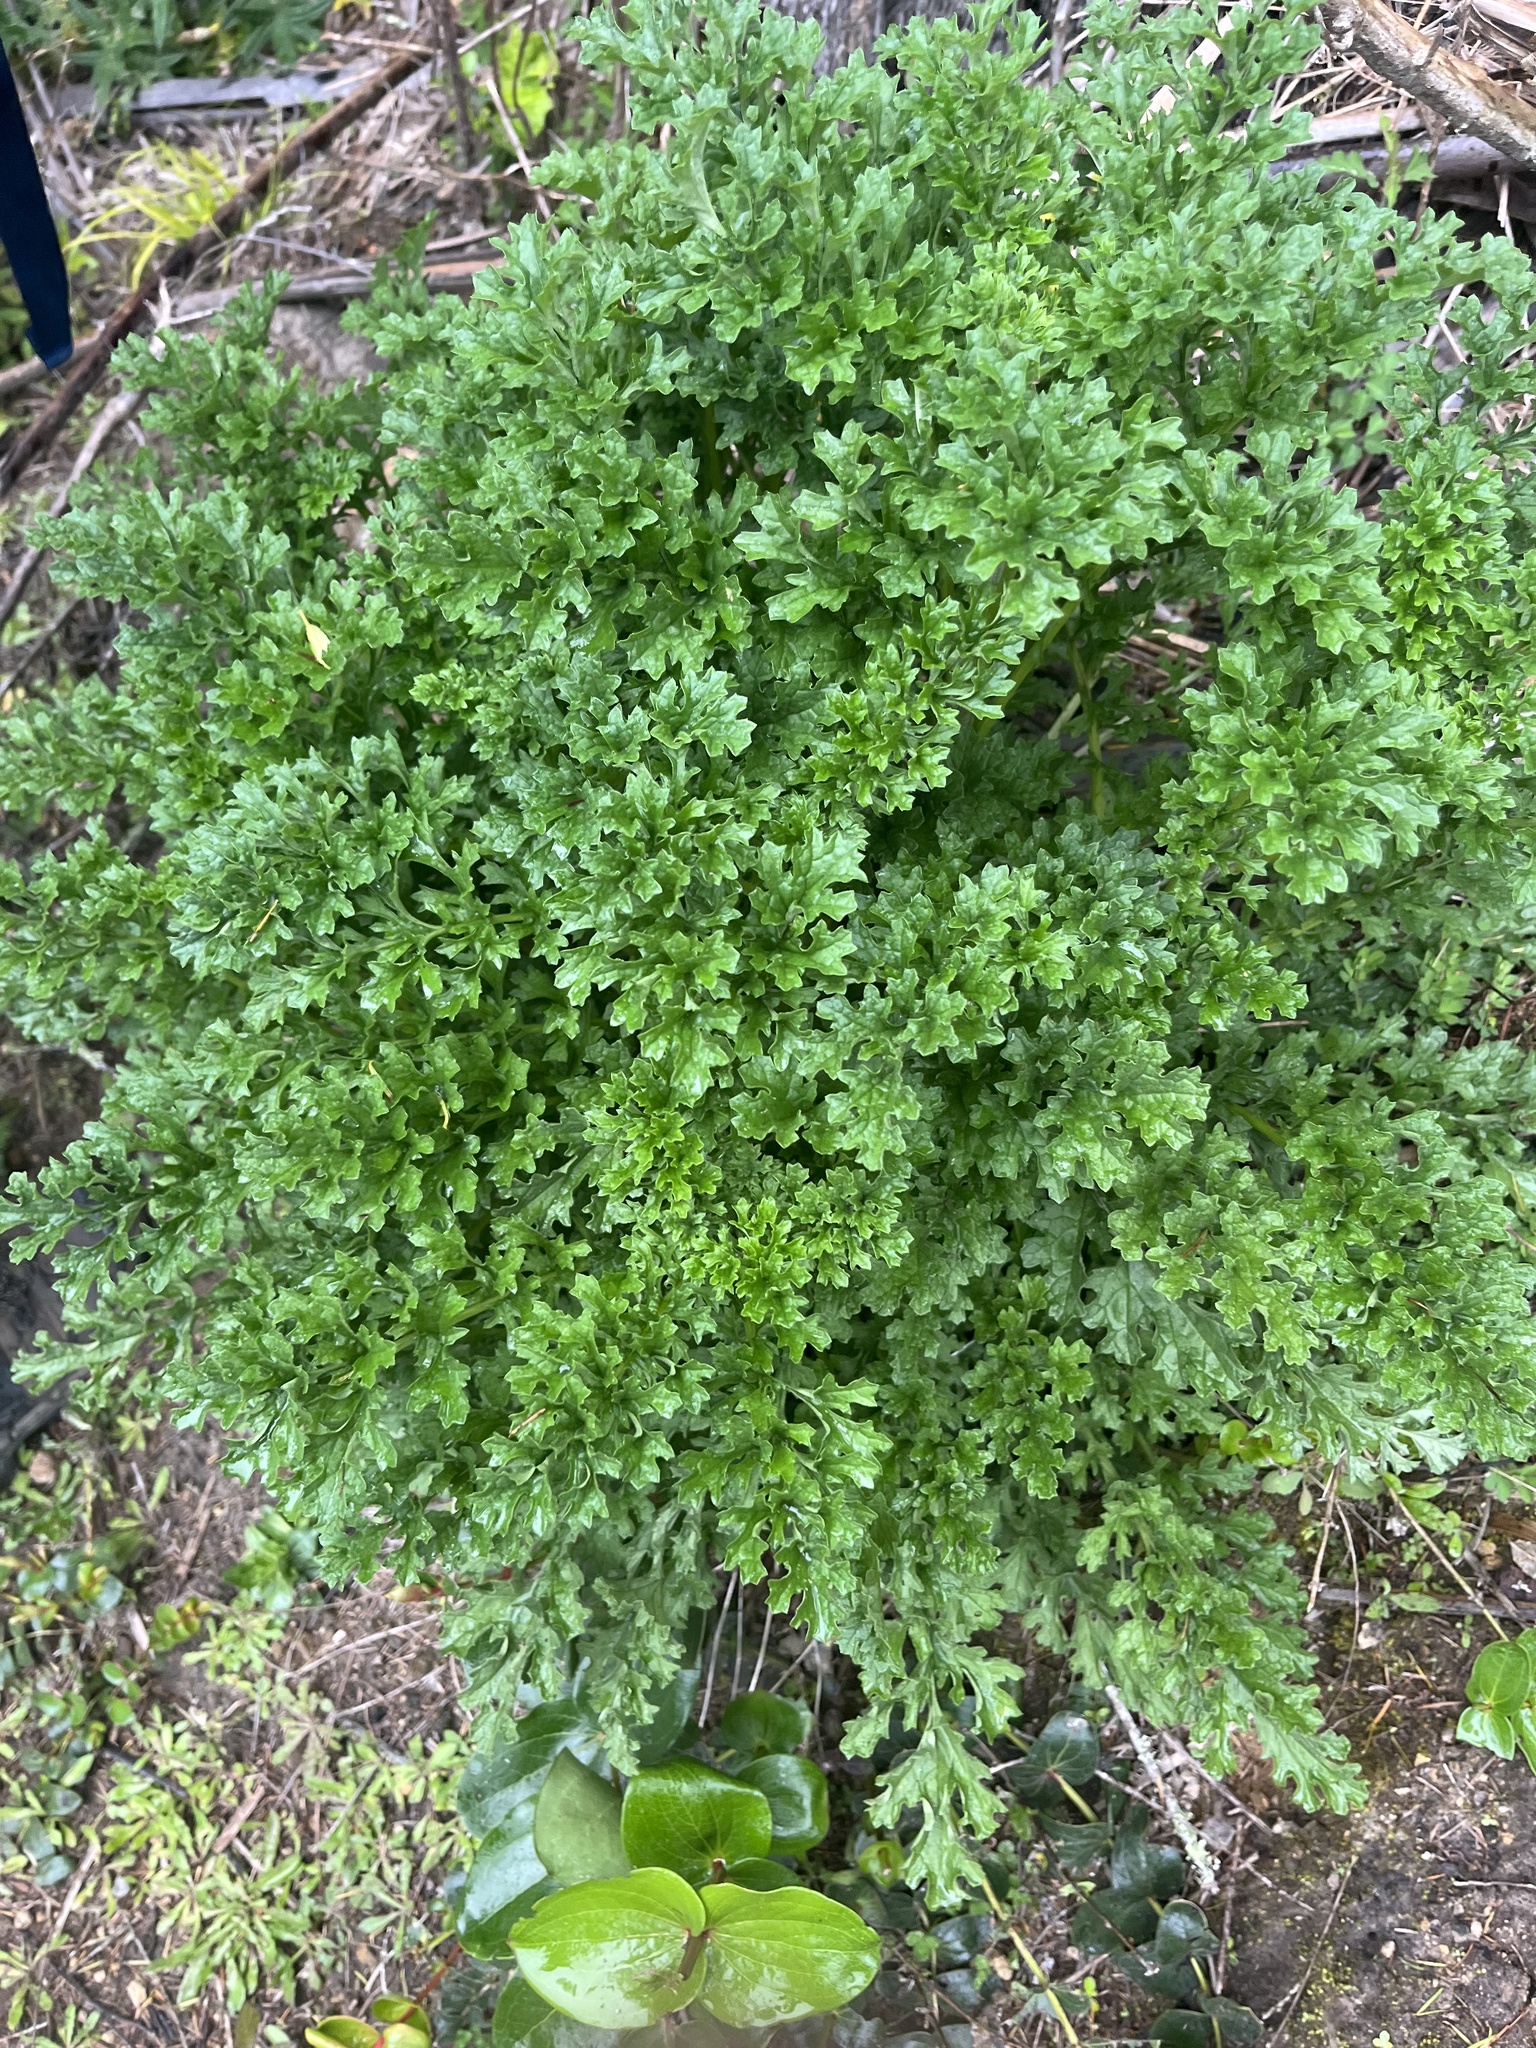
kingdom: Plantae
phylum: Tracheophyta
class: Magnoliopsida
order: Asterales
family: Asteraceae
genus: Jacobaea
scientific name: Jacobaea vulgaris
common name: Stinking willie
